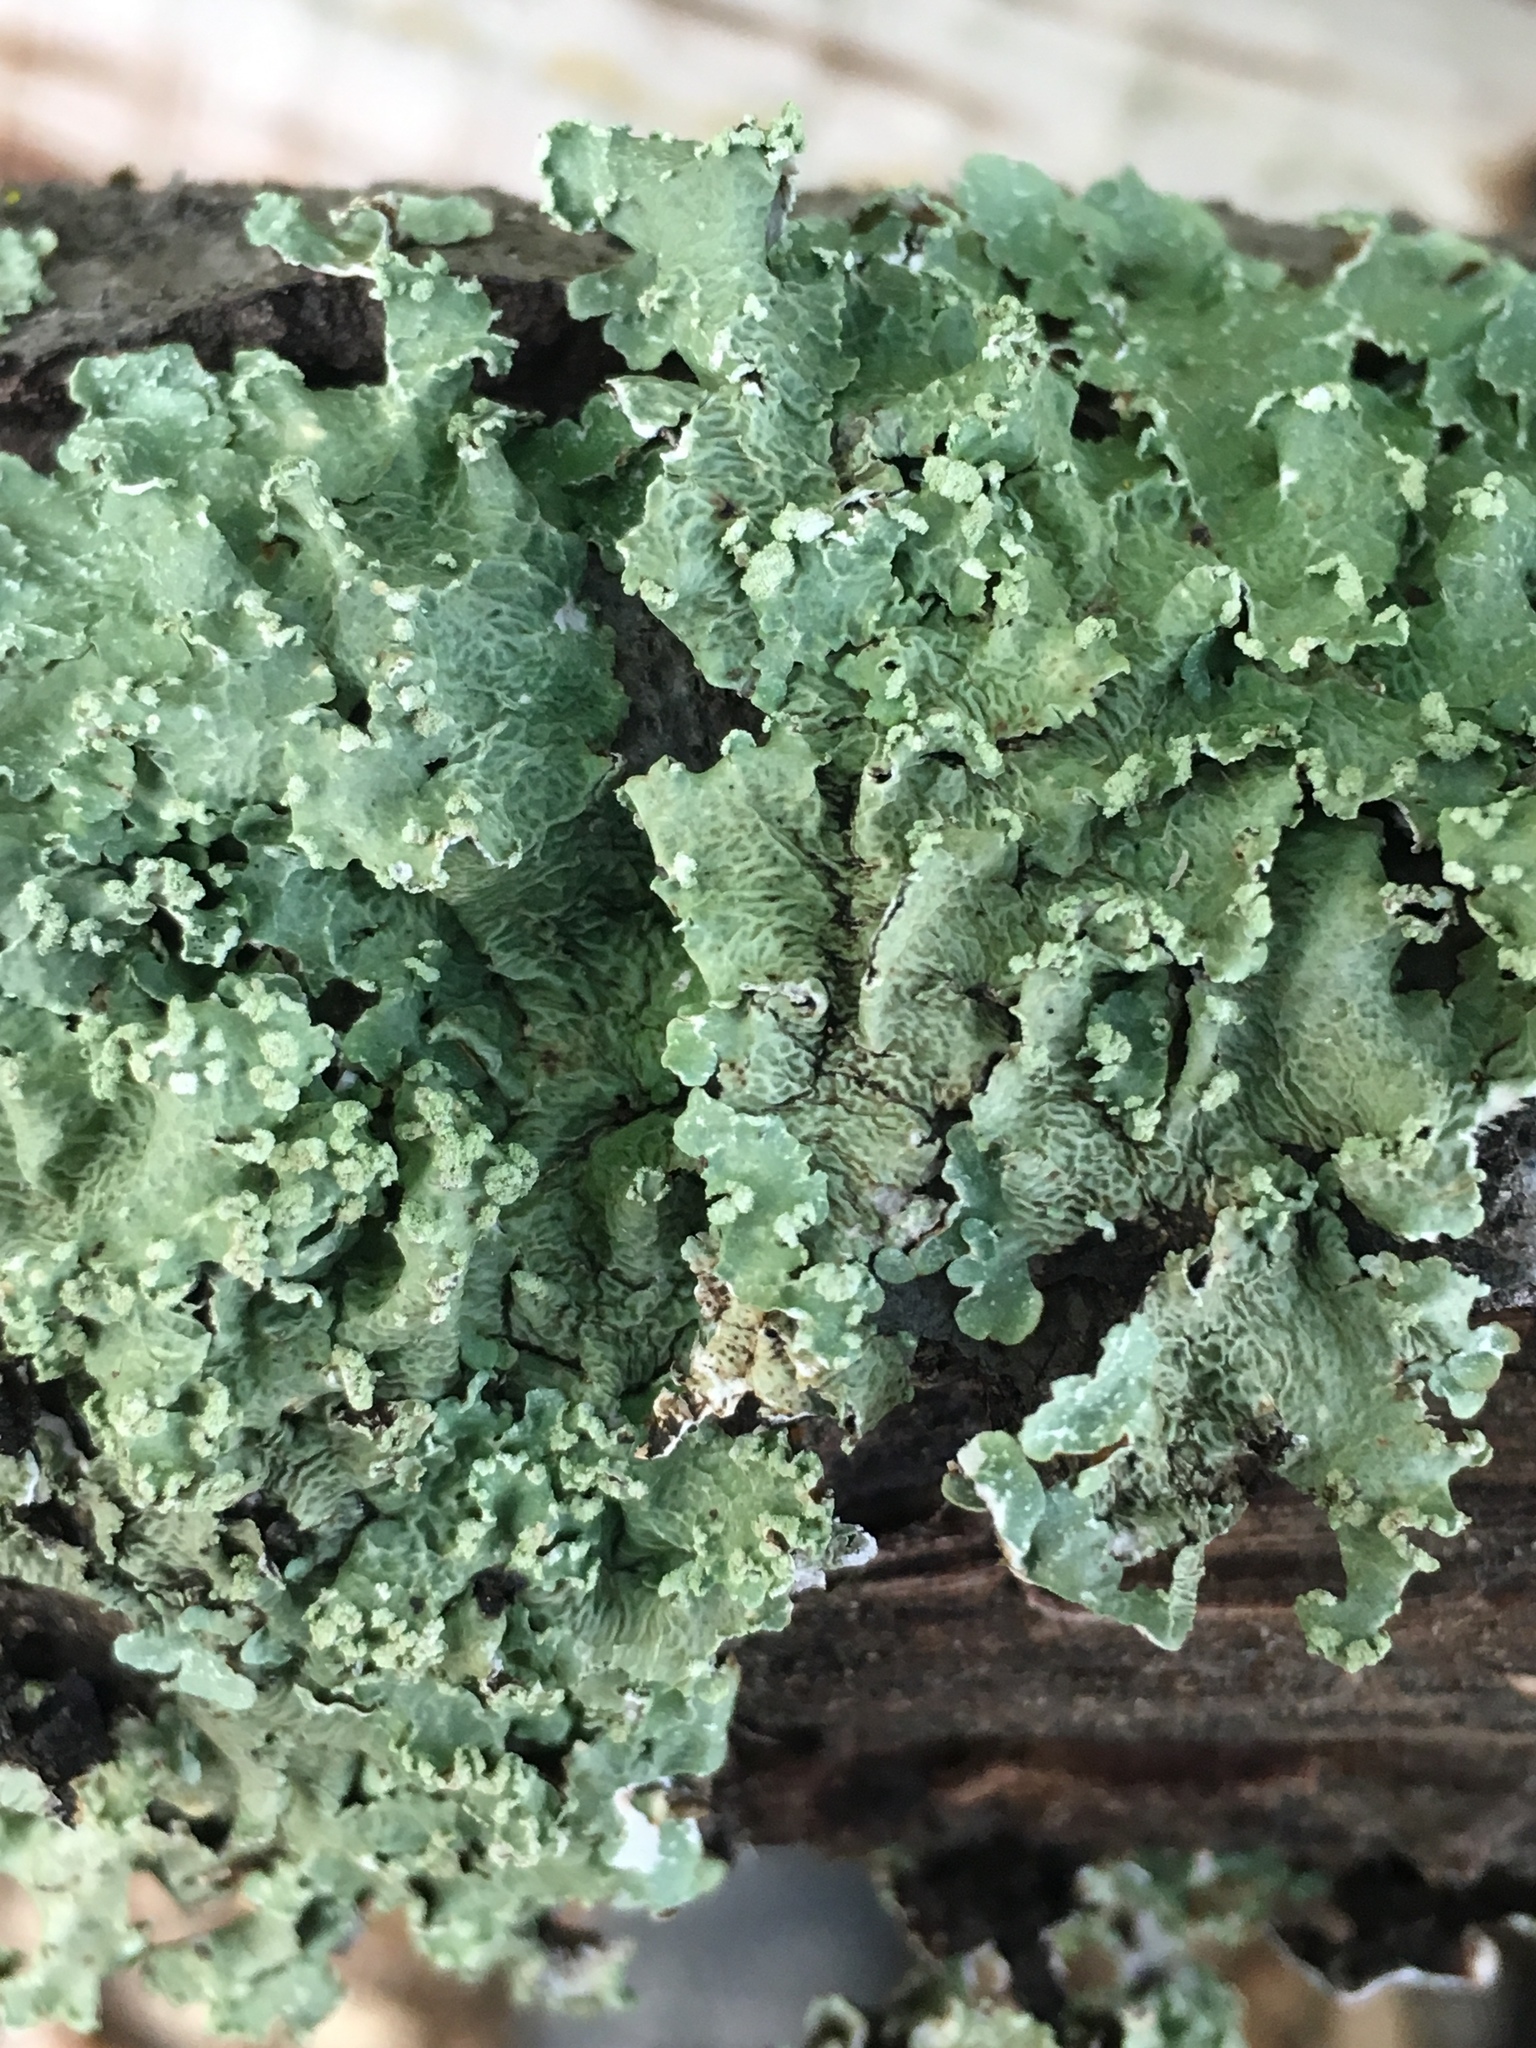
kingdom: Fungi
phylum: Ascomycota
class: Lecanoromycetes
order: Lecanorales
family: Parmeliaceae
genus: Flavopunctelia
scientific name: Flavopunctelia flaventior
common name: Speckled greenshield
